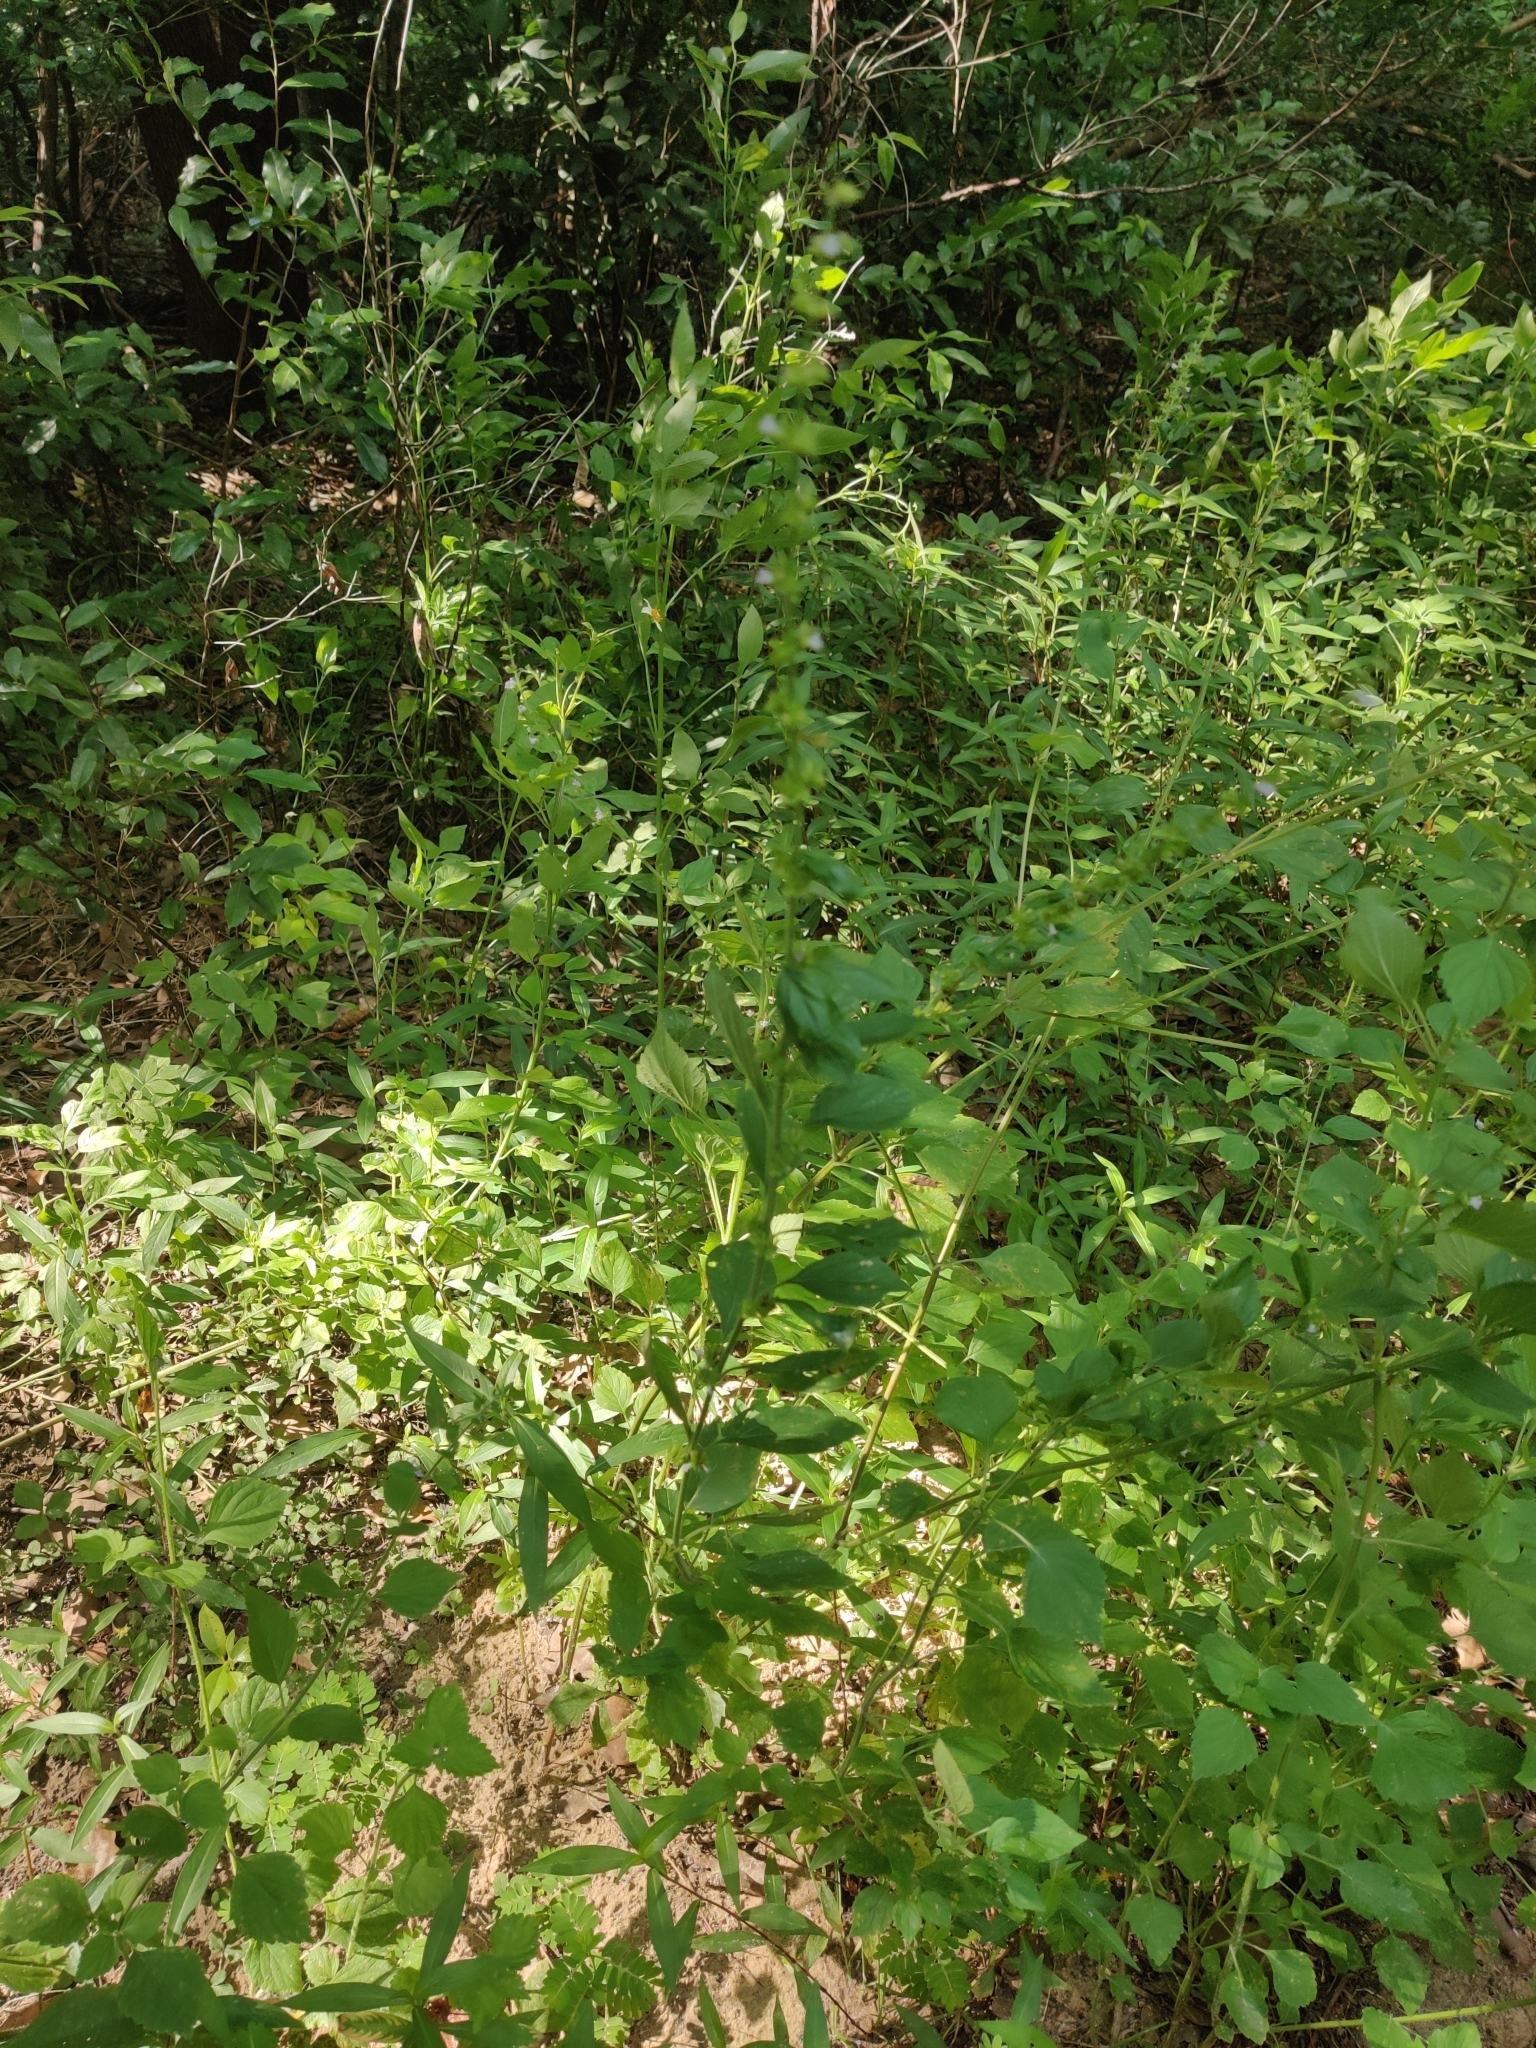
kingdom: Plantae
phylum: Tracheophyta
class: Magnoliopsida
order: Lamiales
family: Lamiaceae
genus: Cantinoa
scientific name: Cantinoa mutabilis
